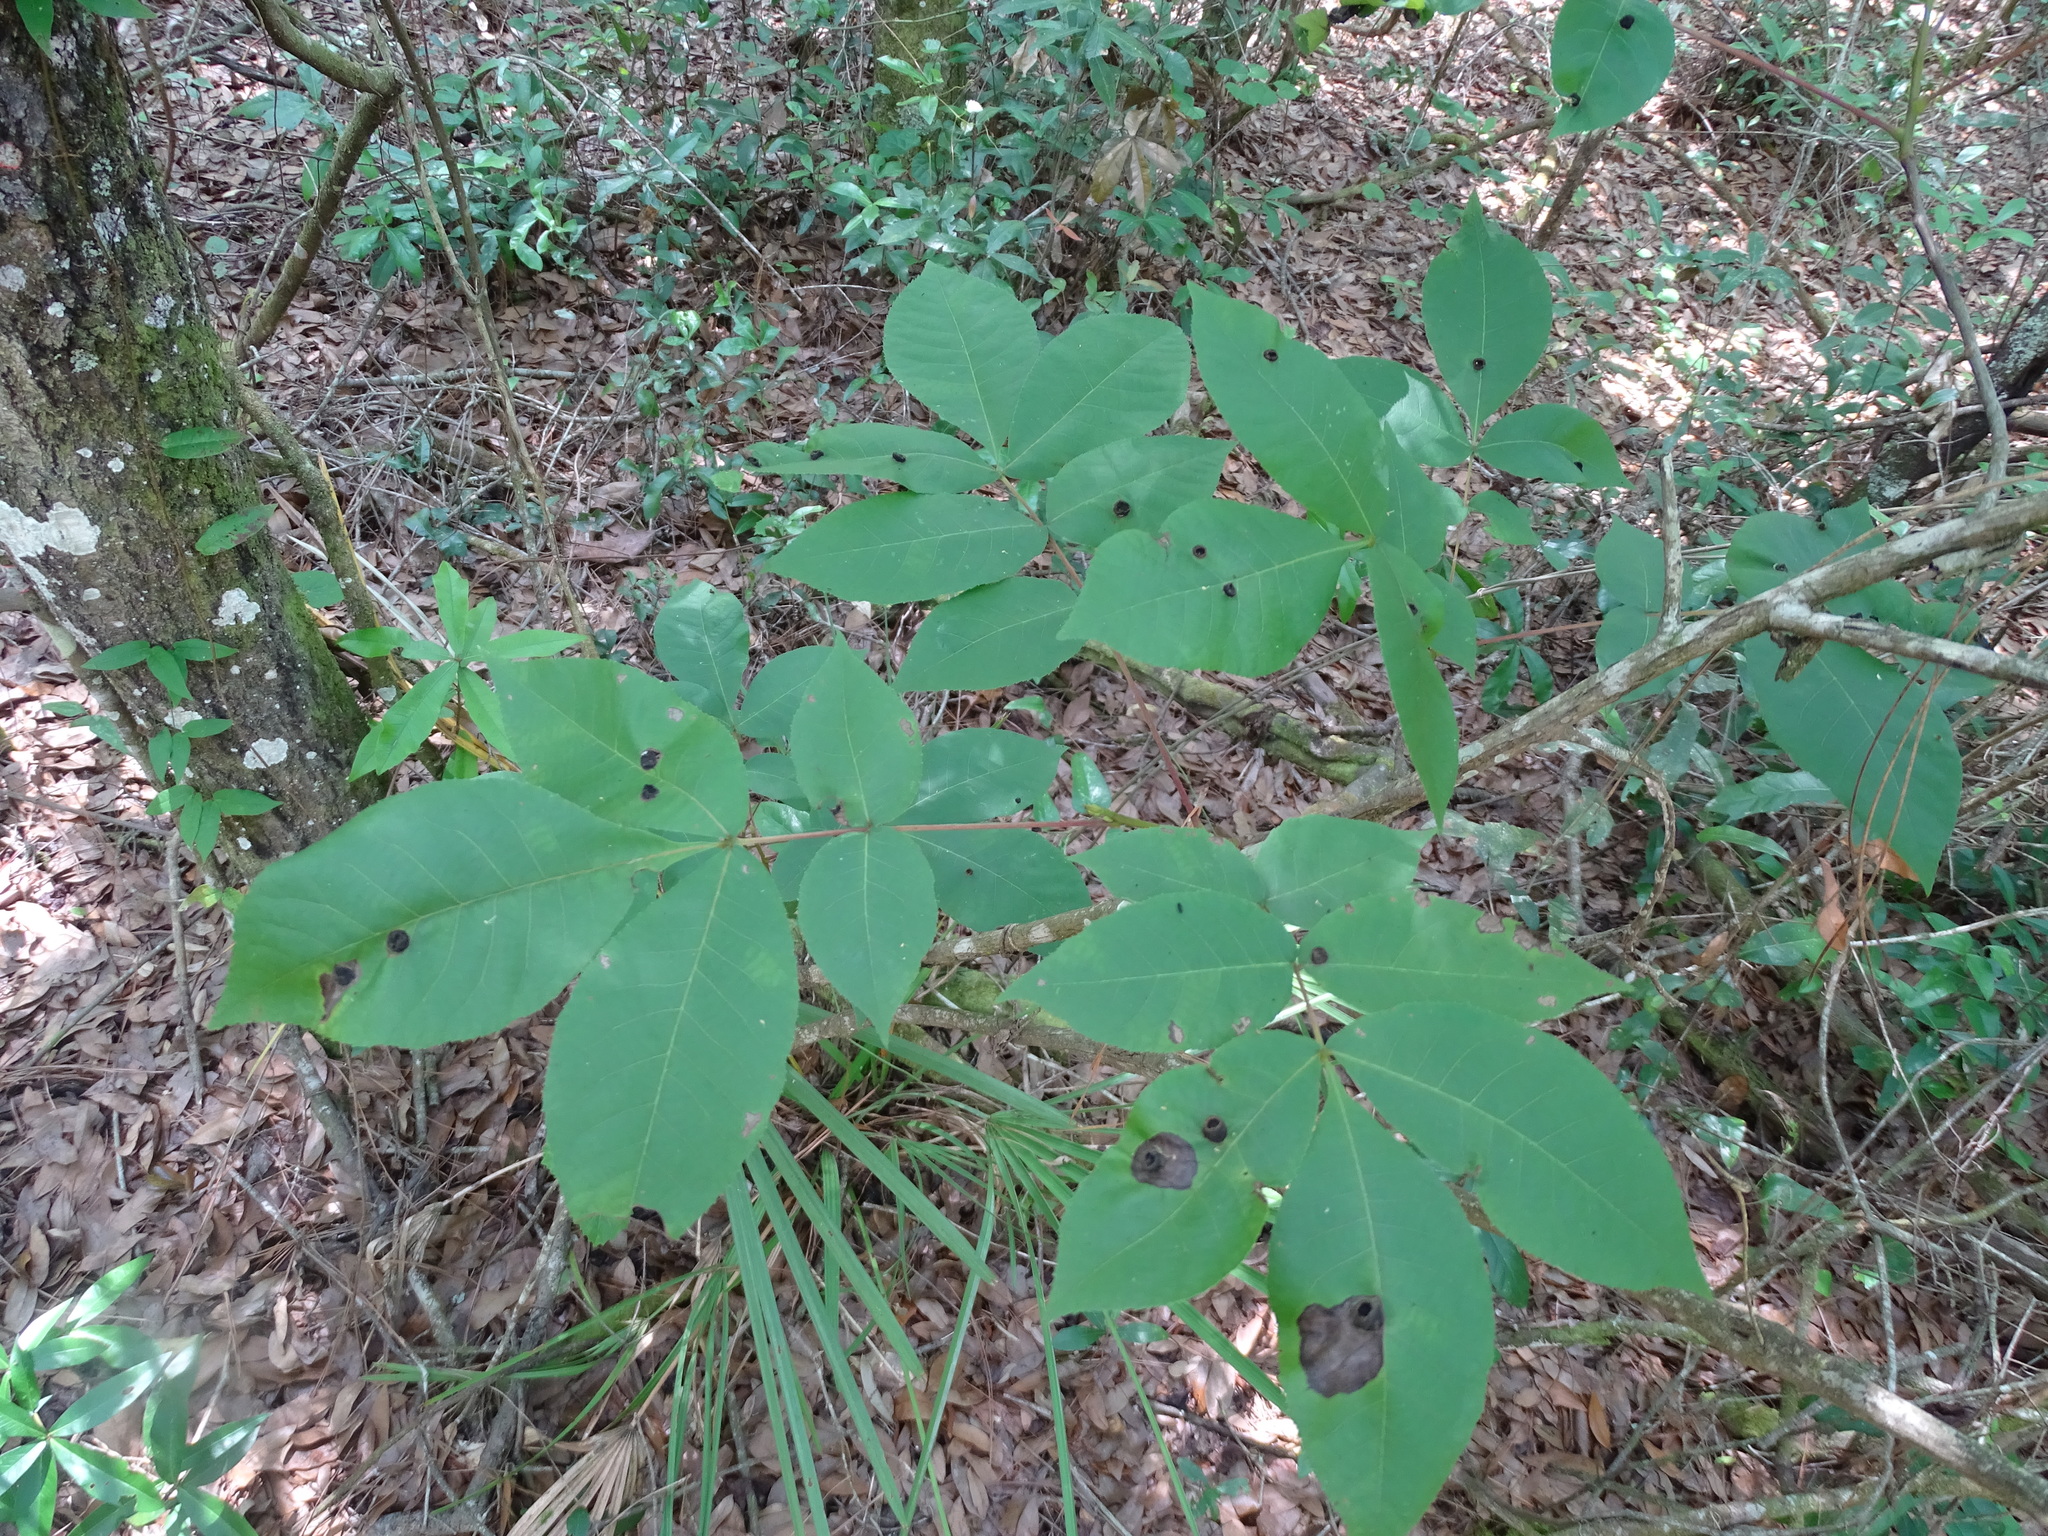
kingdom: Plantae
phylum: Tracheophyta
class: Magnoliopsida
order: Fagales
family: Juglandaceae
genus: Carya
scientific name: Carya glabra
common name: Pignut hickory
